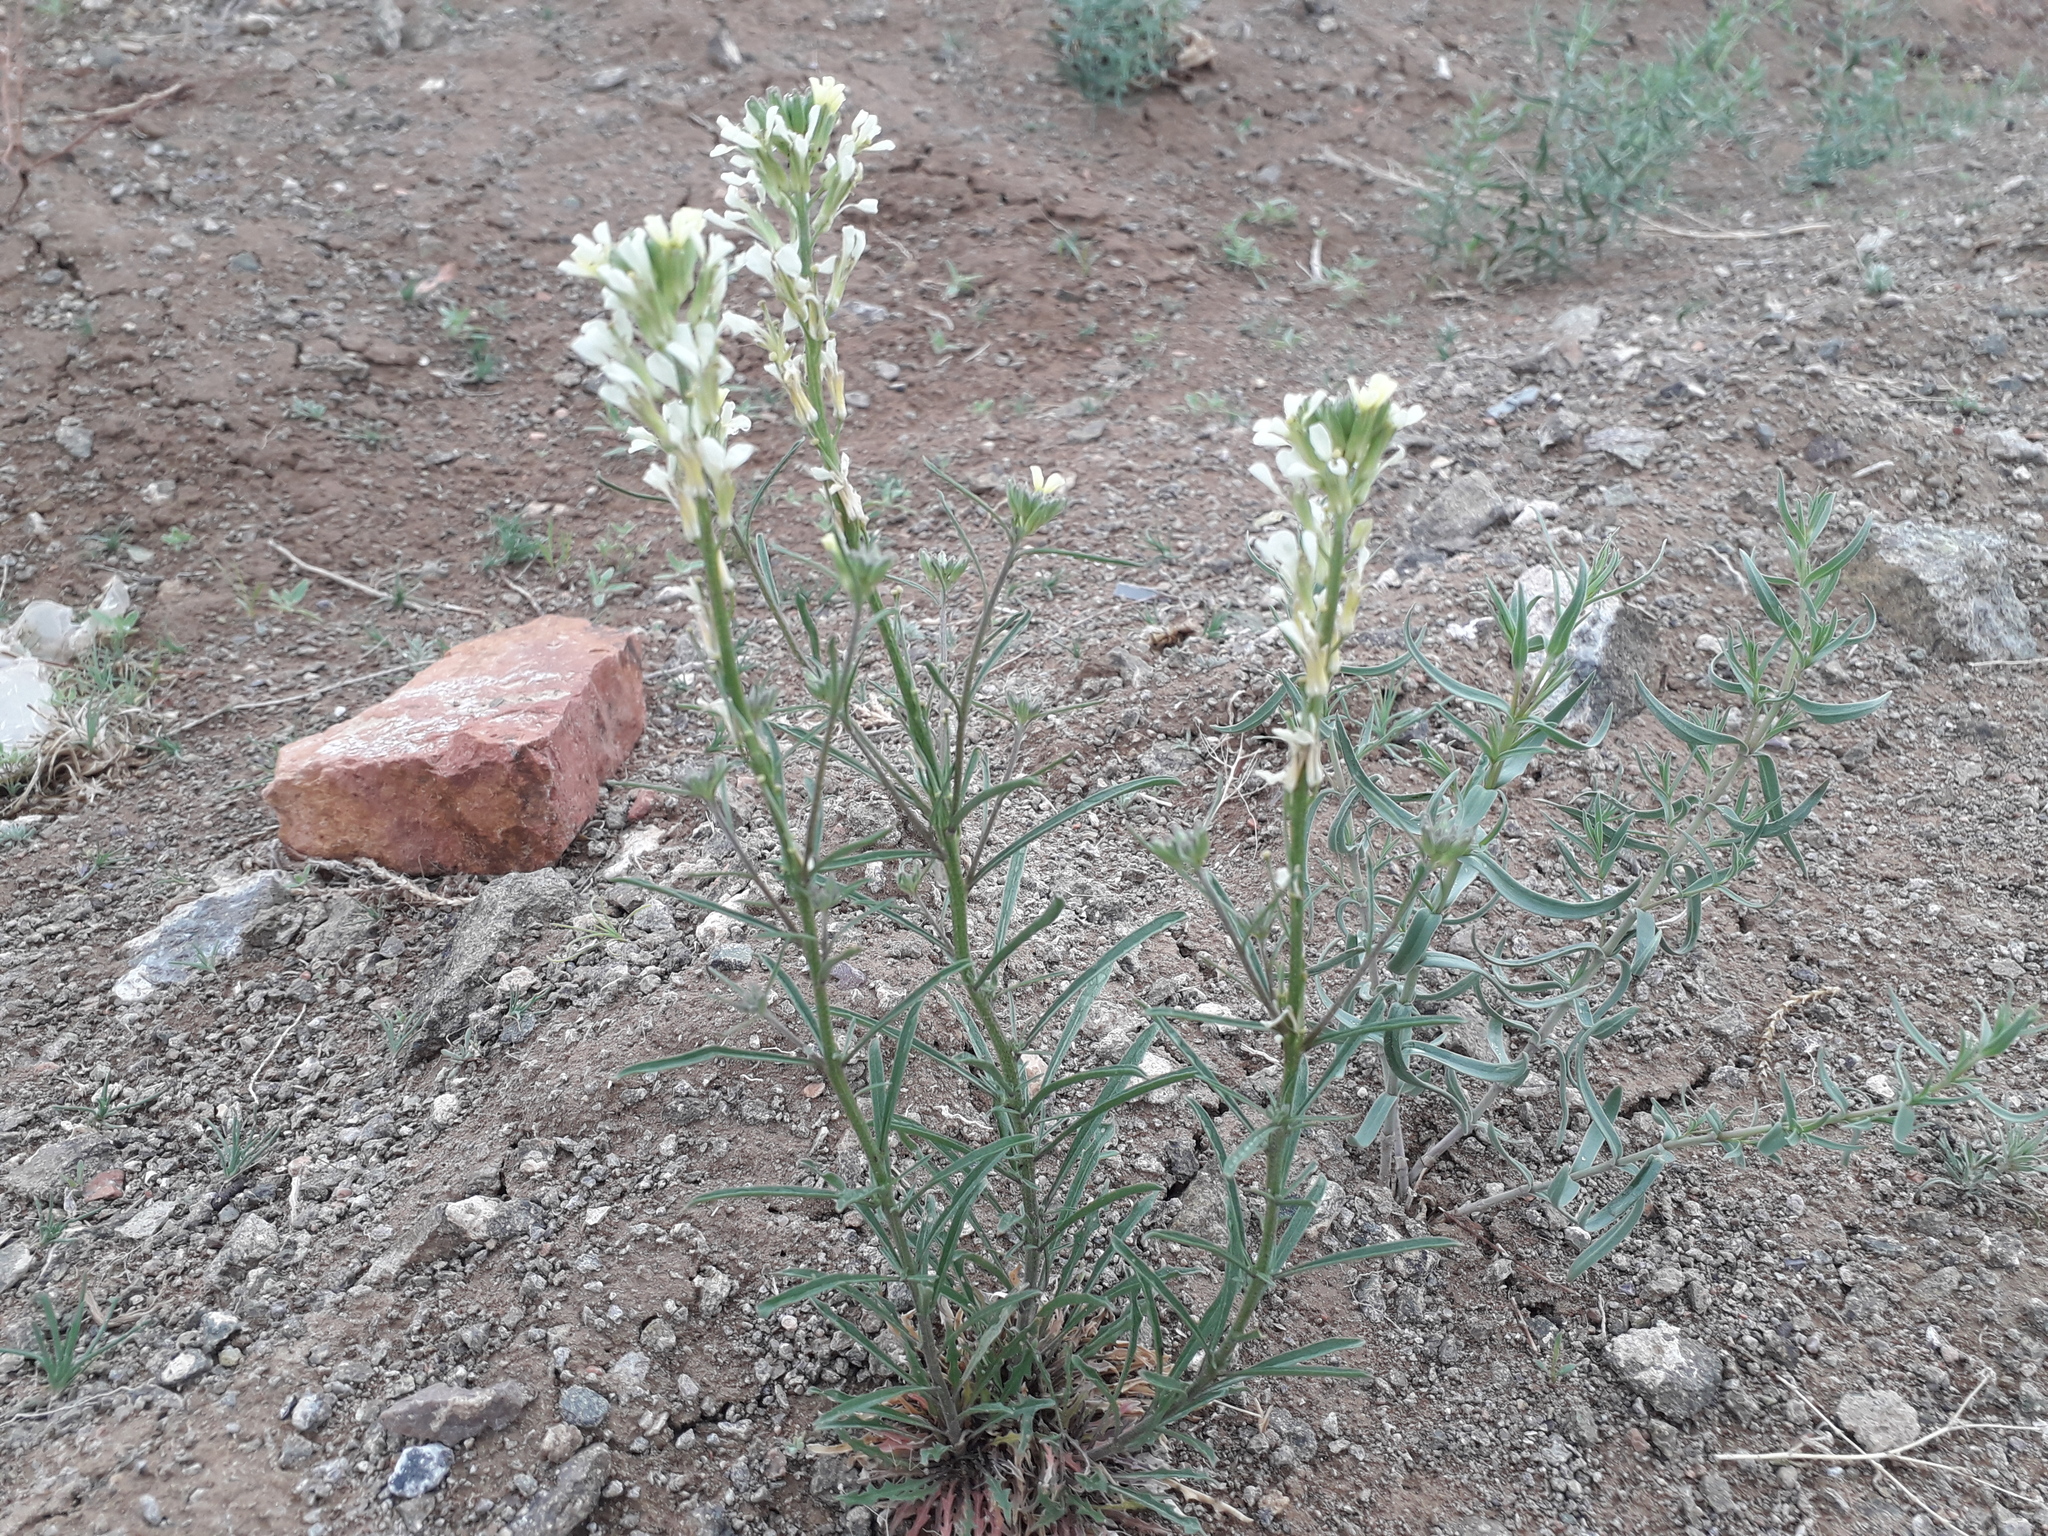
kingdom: Plantae
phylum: Tracheophyta
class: Magnoliopsida
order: Brassicales
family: Brassicaceae
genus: Erysimum
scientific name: Erysimum leucanthemum
